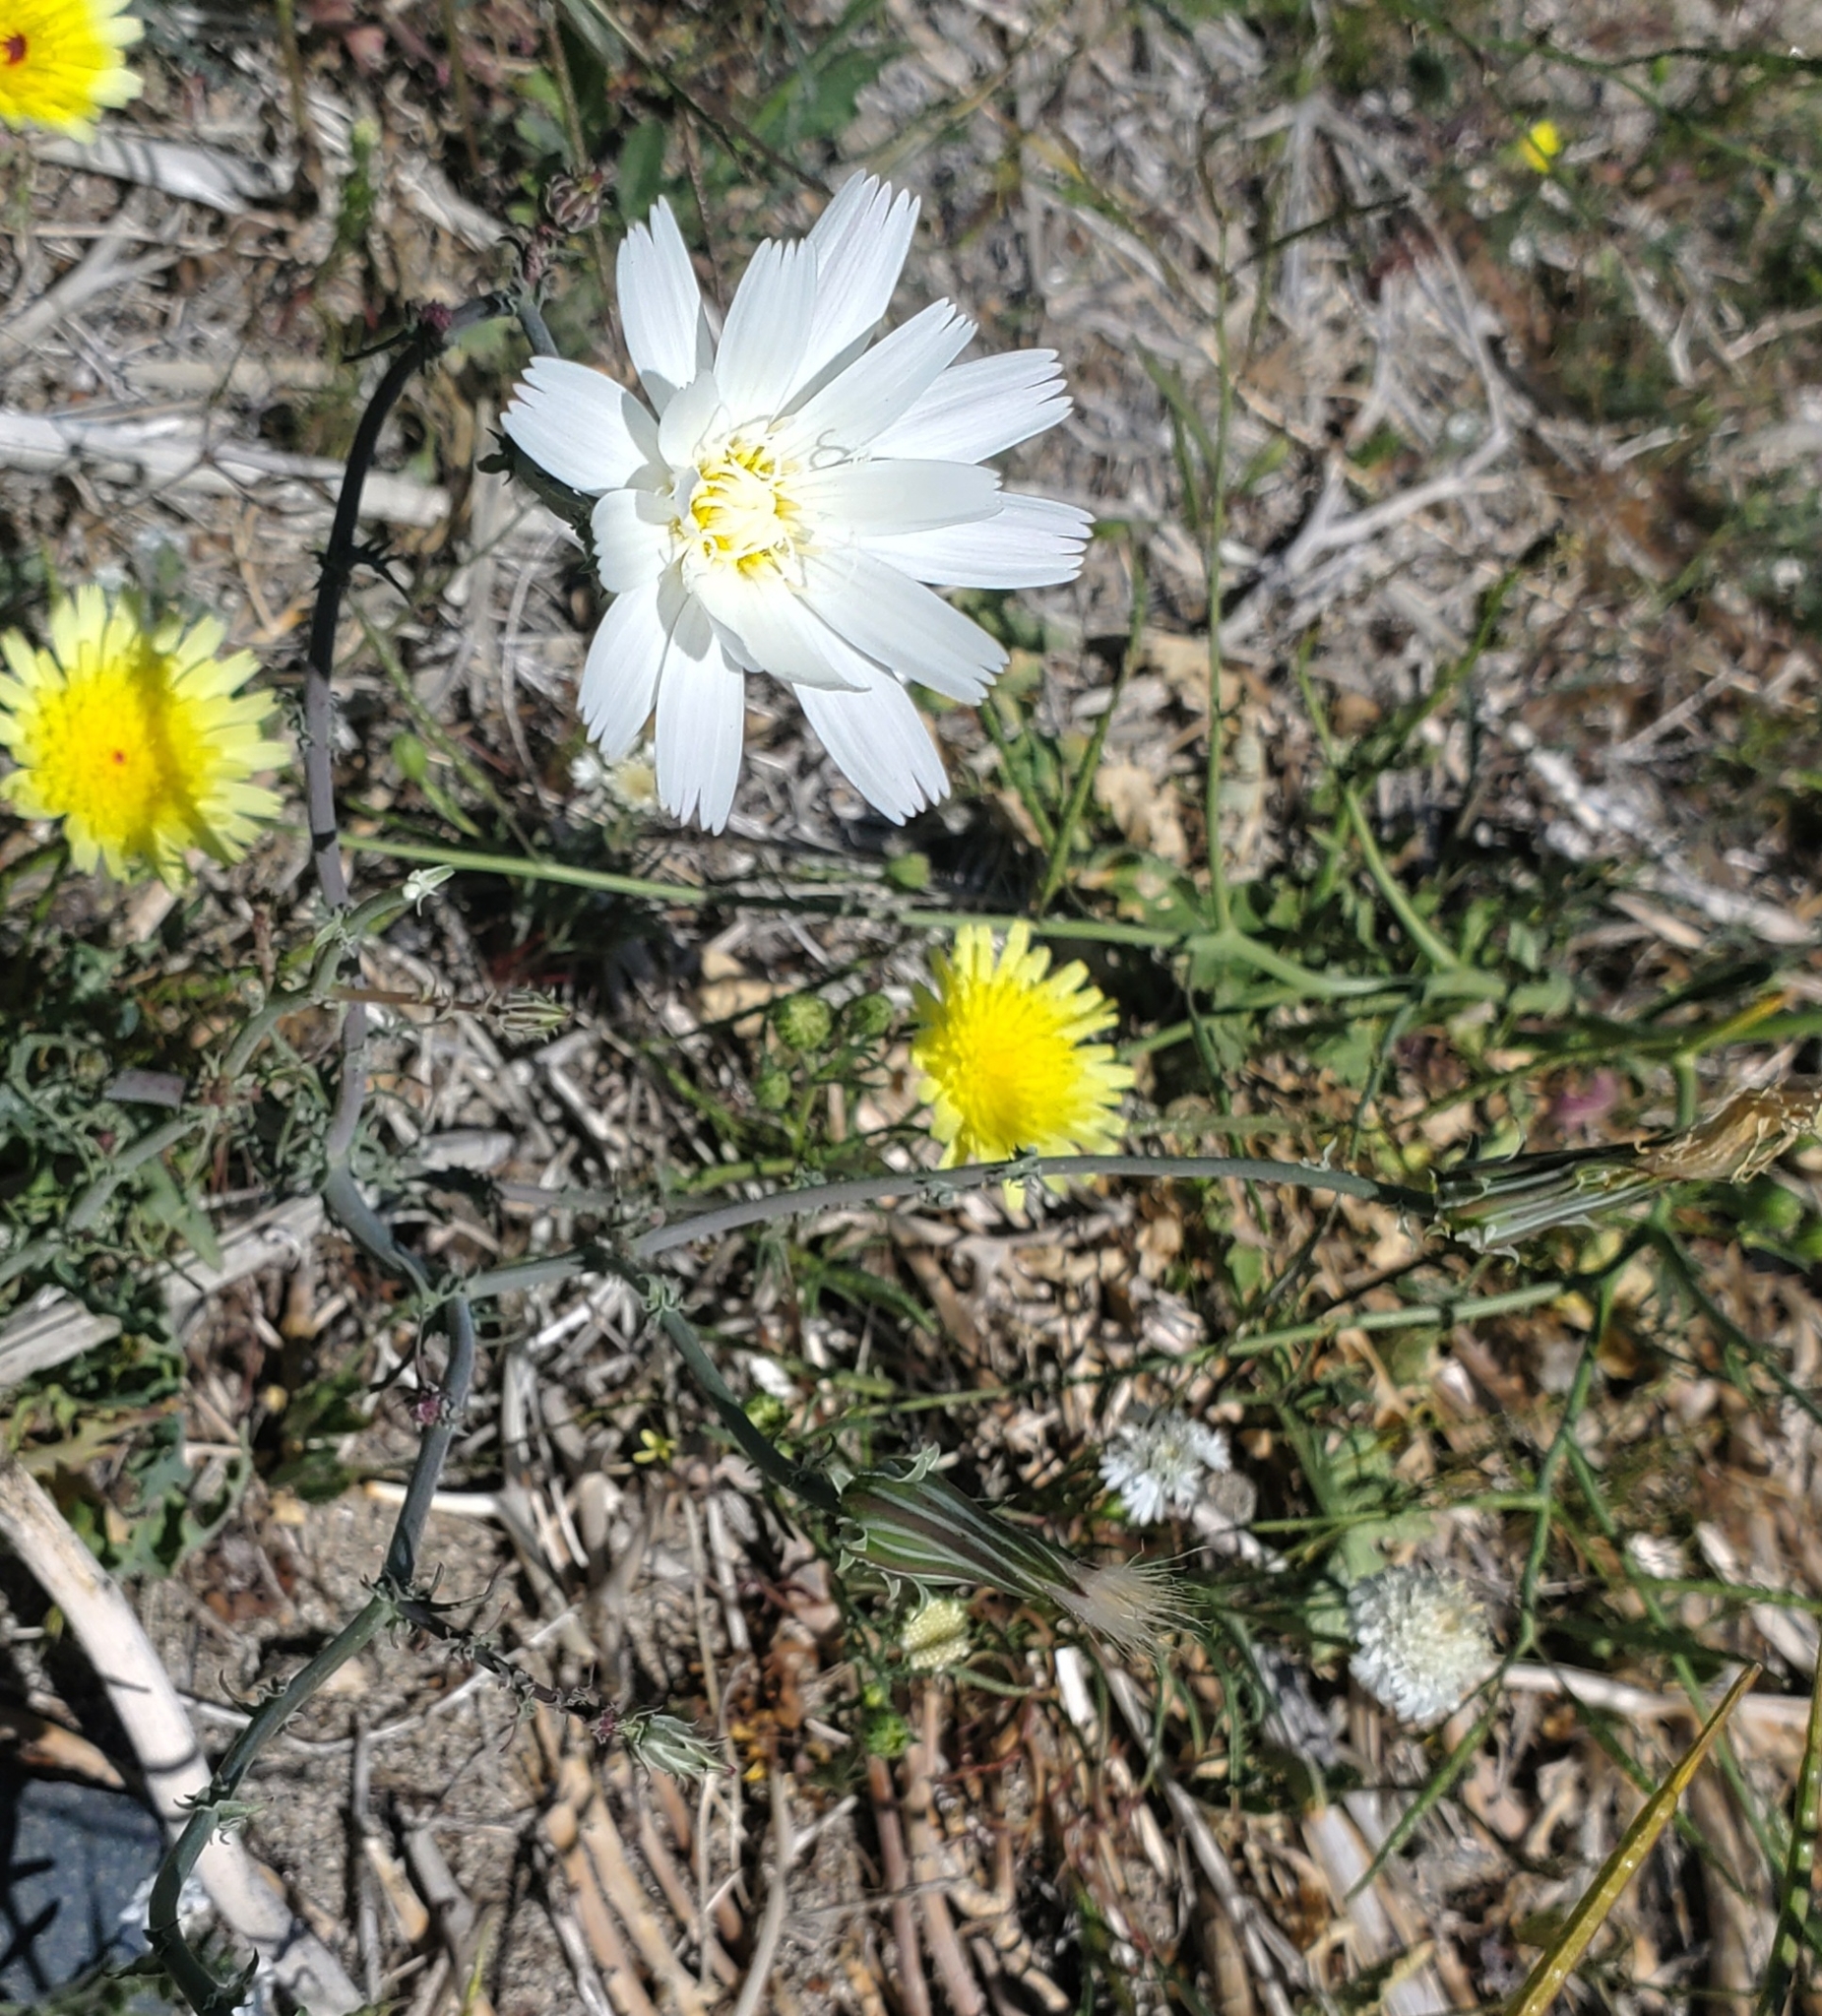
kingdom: Plantae
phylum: Tracheophyta
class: Magnoliopsida
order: Asterales
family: Asteraceae
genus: Rafinesquia
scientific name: Rafinesquia neomexicana
